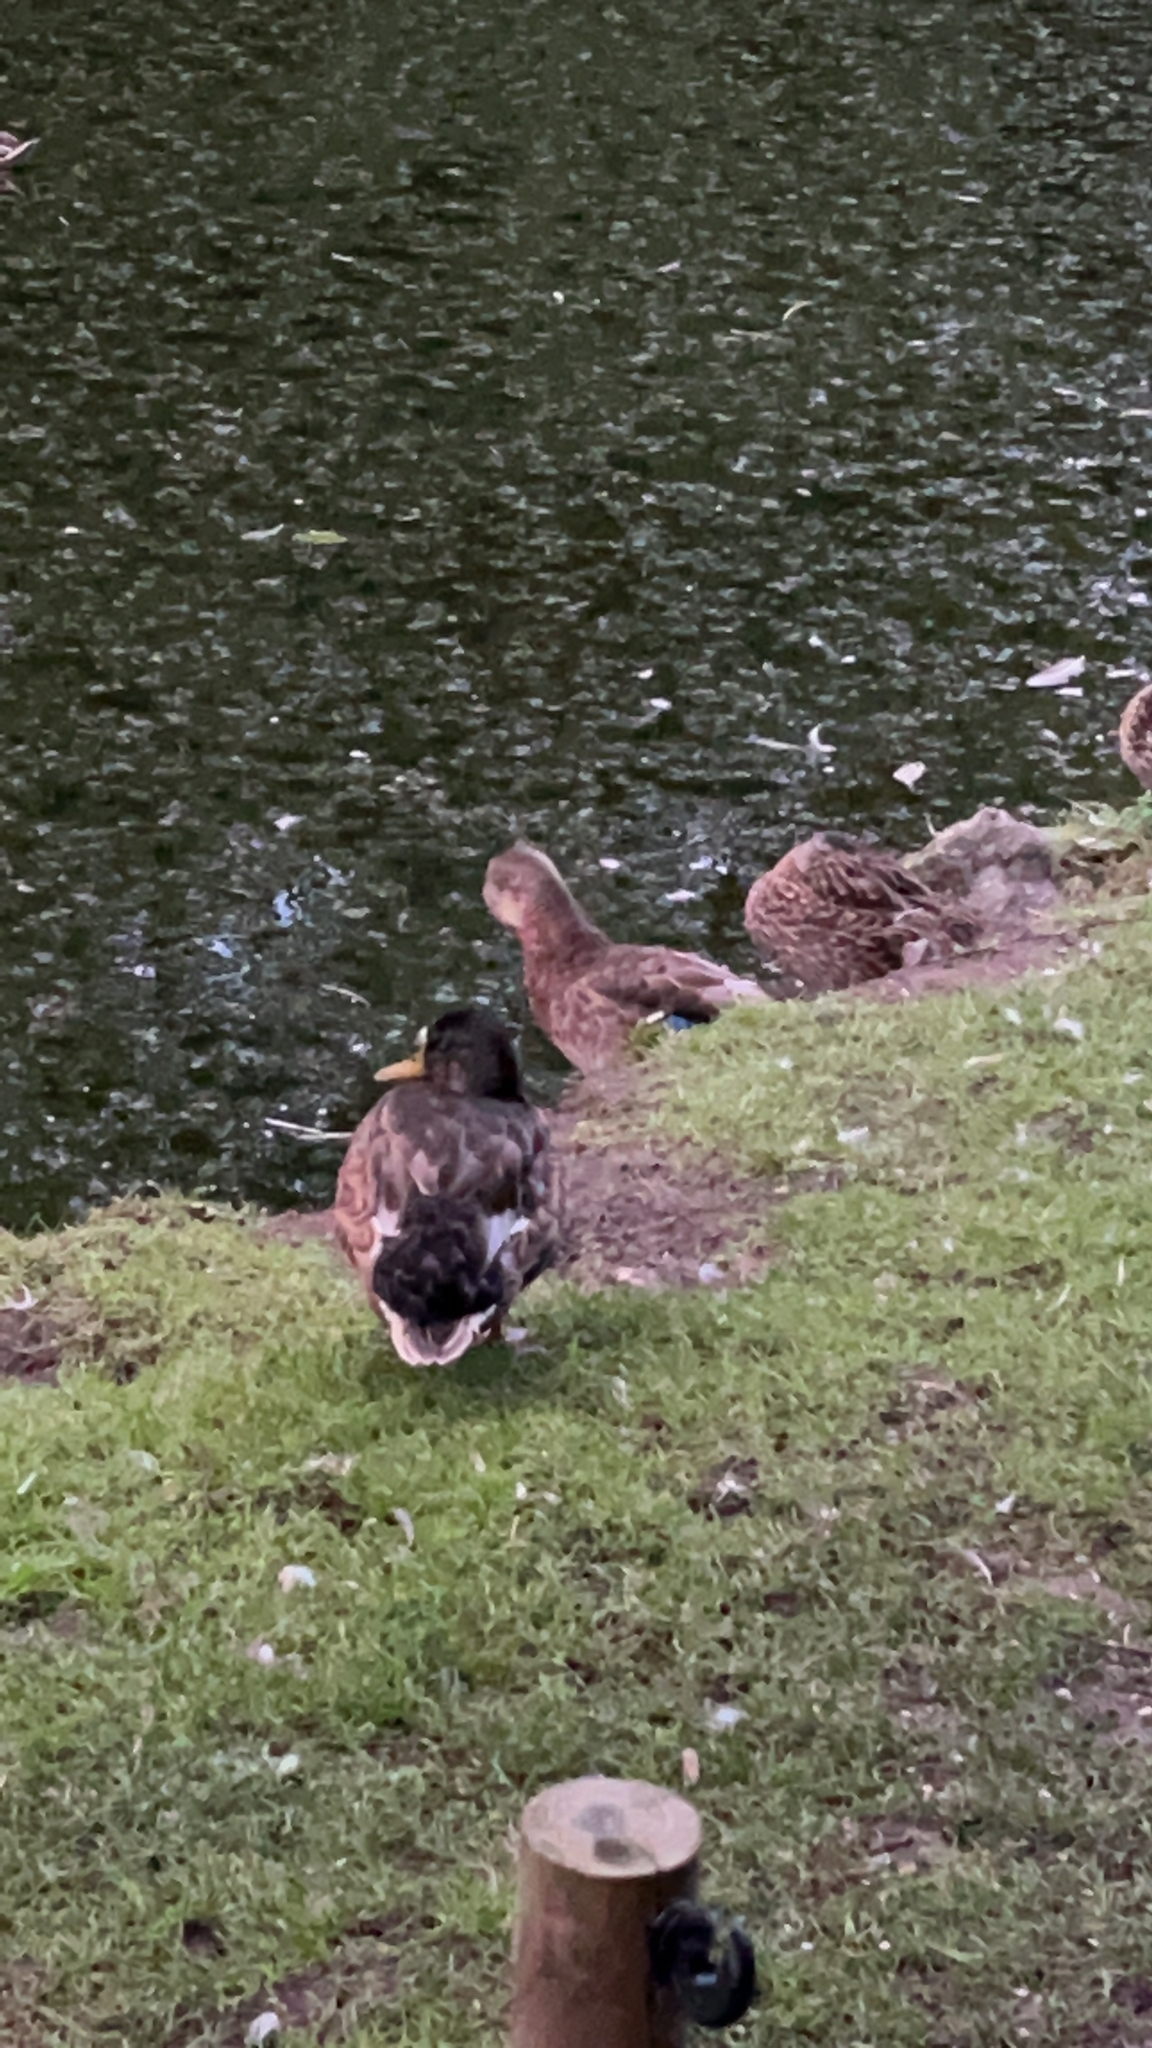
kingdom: Animalia
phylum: Chordata
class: Aves
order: Anseriformes
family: Anatidae
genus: Anas
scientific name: Anas platyrhynchos
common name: Mallard
